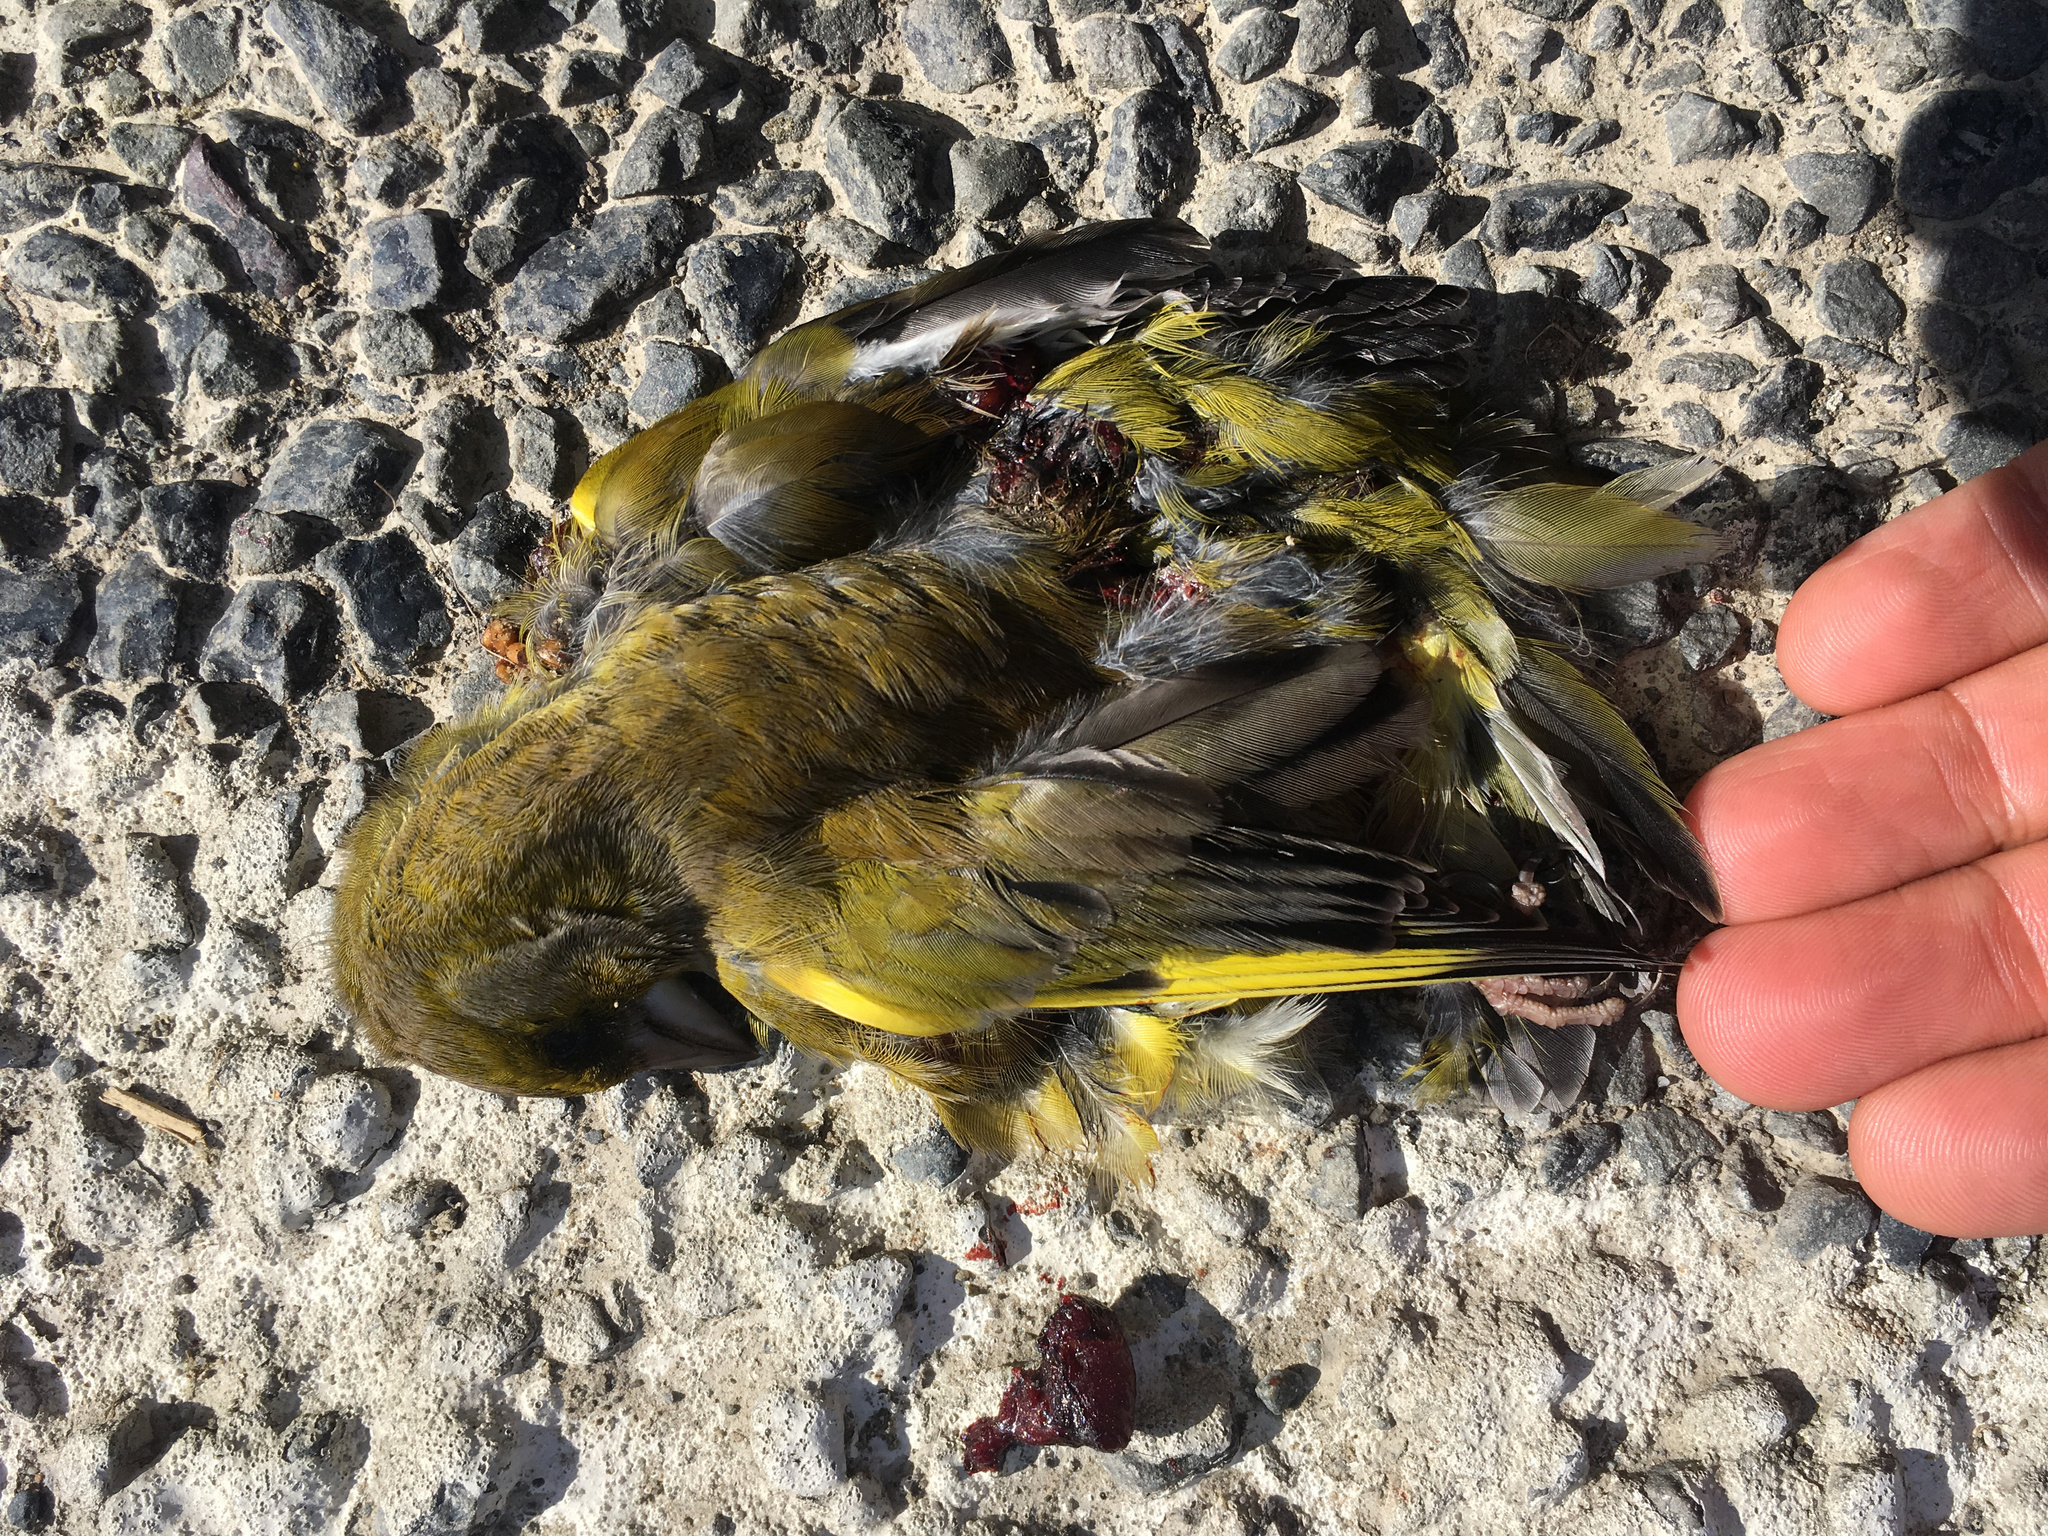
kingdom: Plantae
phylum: Tracheophyta
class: Liliopsida
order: Poales
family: Poaceae
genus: Chloris
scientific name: Chloris chloris
